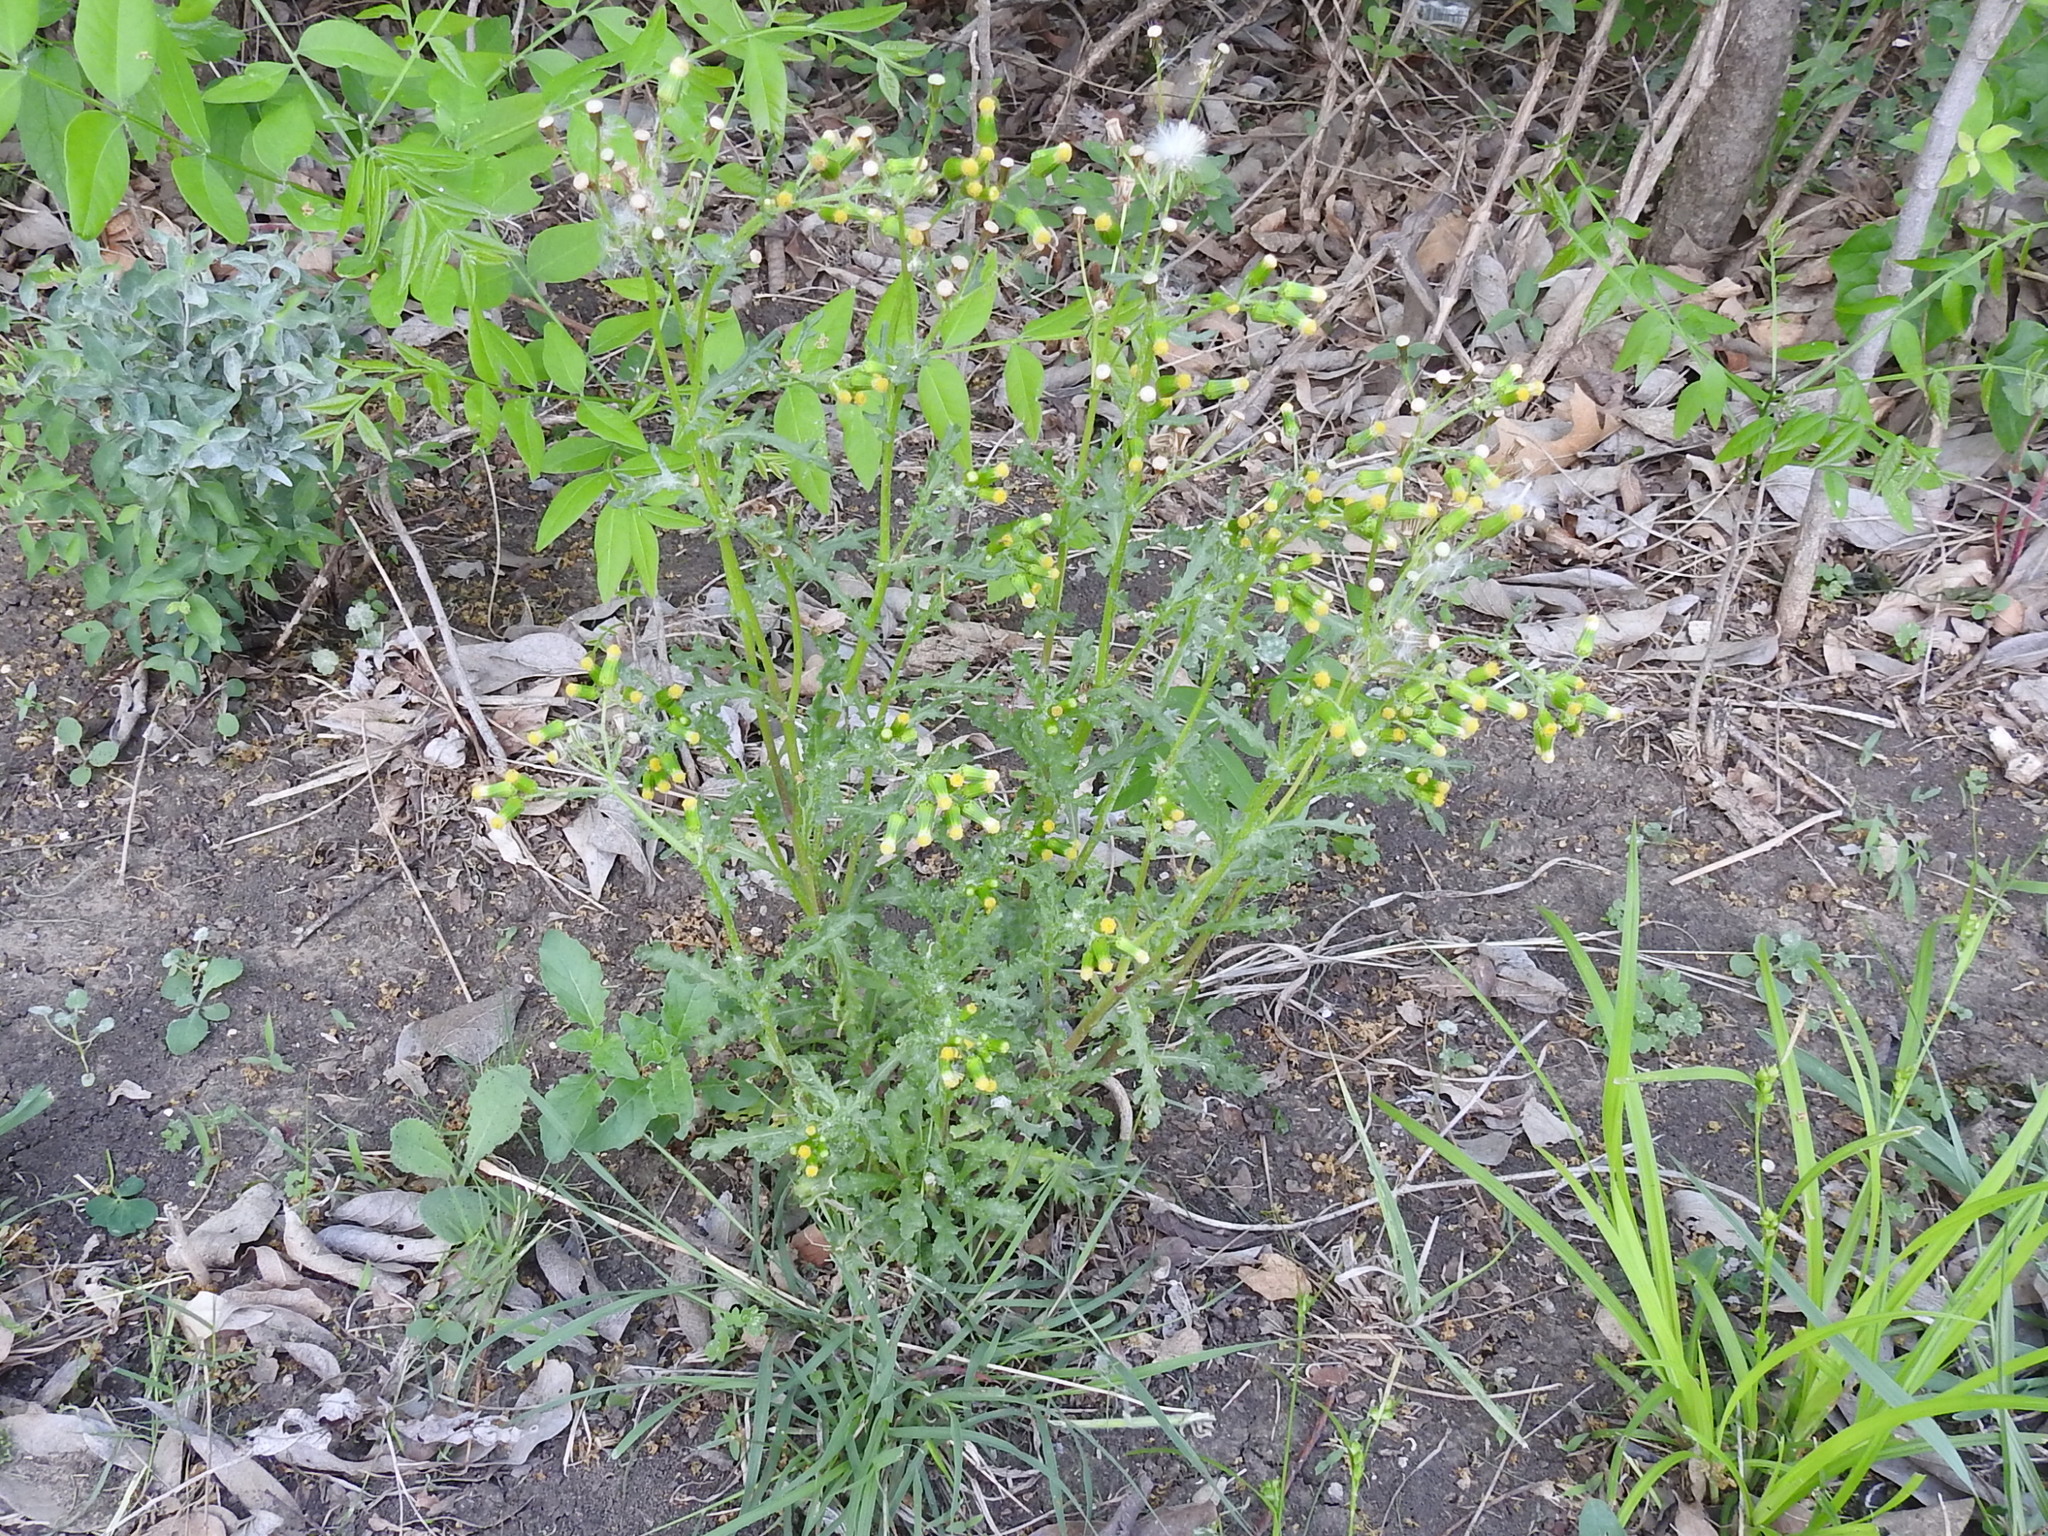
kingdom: Plantae
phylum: Tracheophyta
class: Magnoliopsida
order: Asterales
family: Asteraceae
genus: Senecio
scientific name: Senecio vulgaris
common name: Old-man-in-the-spring
